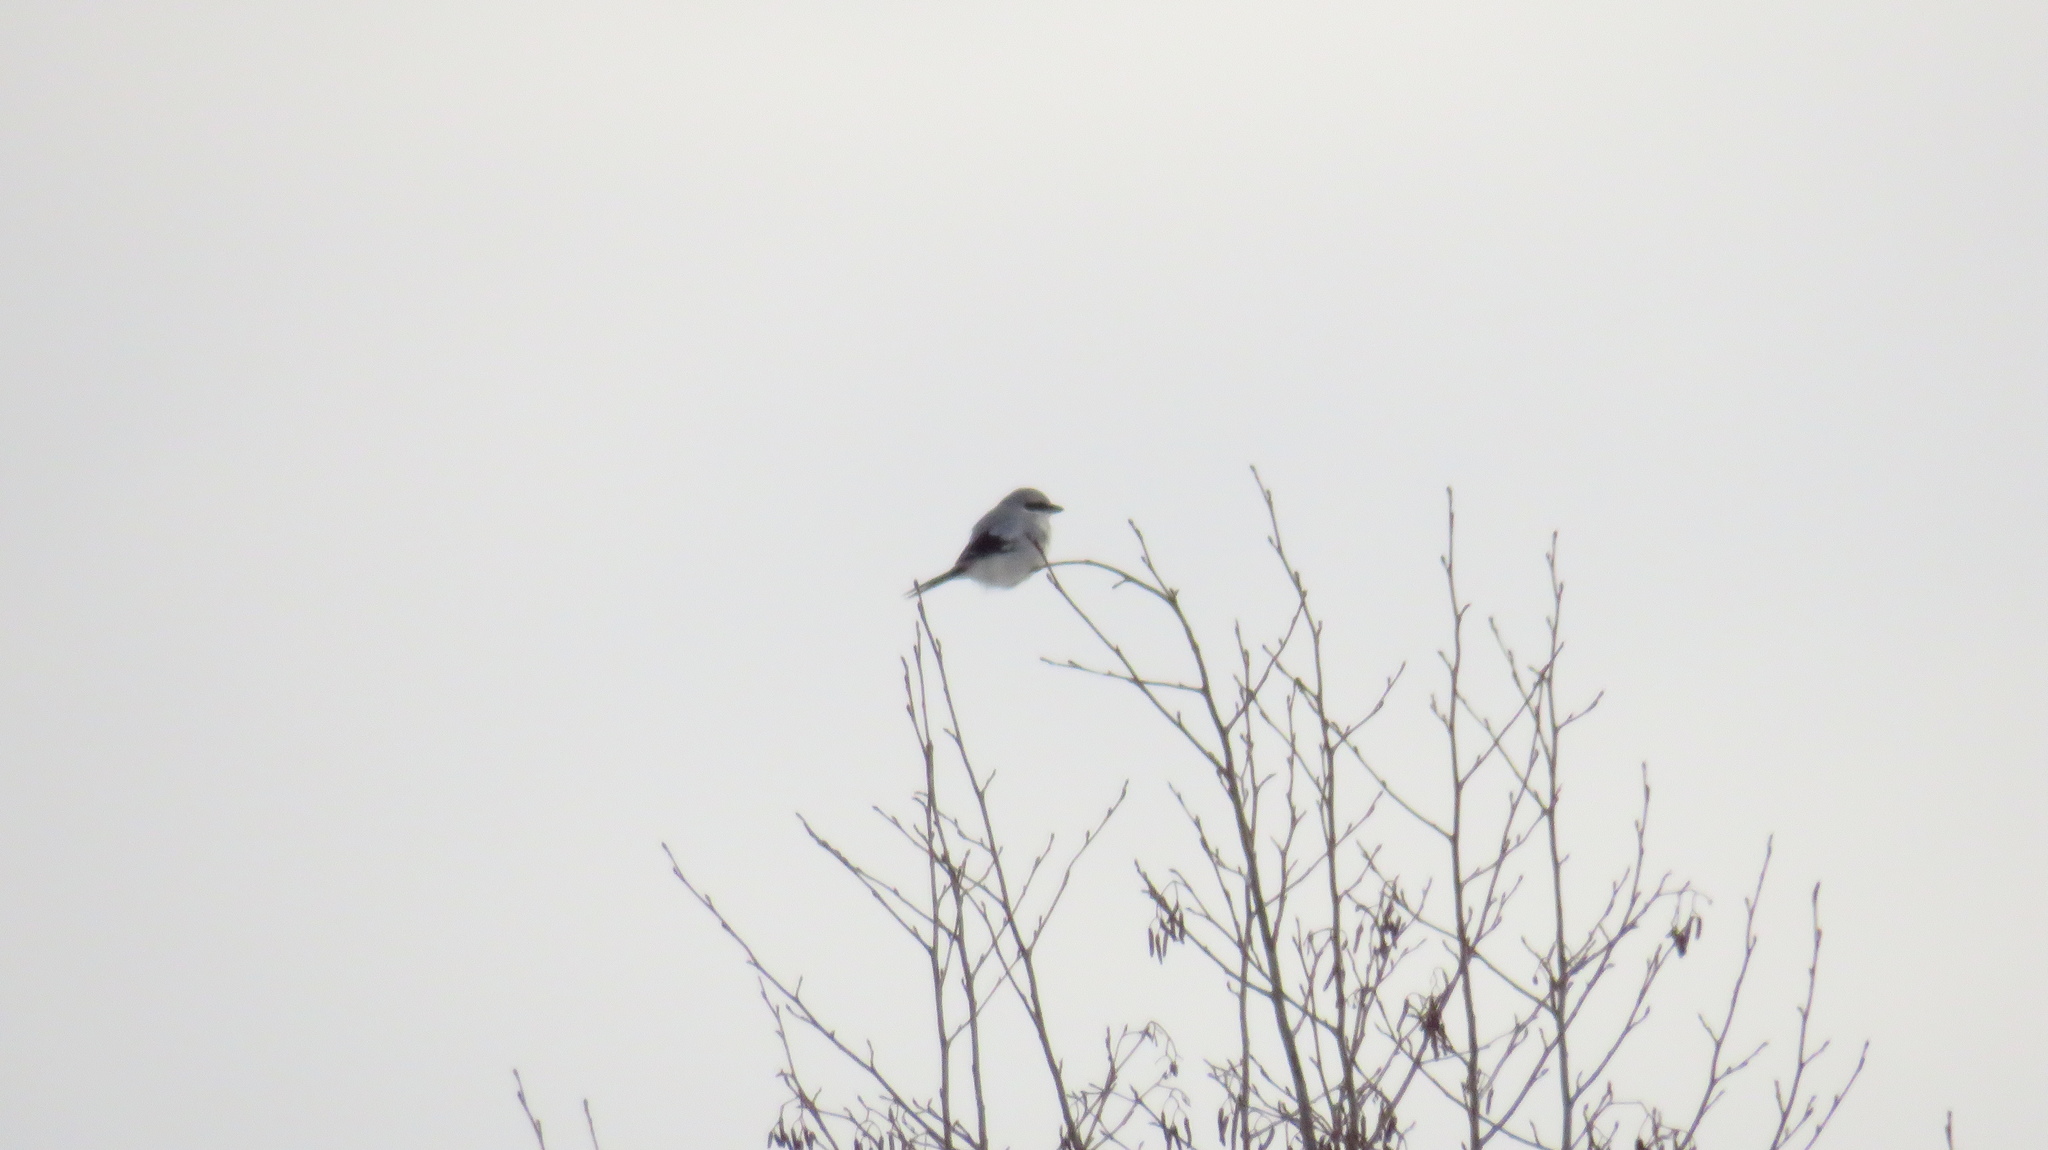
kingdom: Animalia
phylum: Chordata
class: Aves
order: Passeriformes
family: Laniidae
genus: Lanius
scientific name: Lanius excubitor
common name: Great grey shrike
